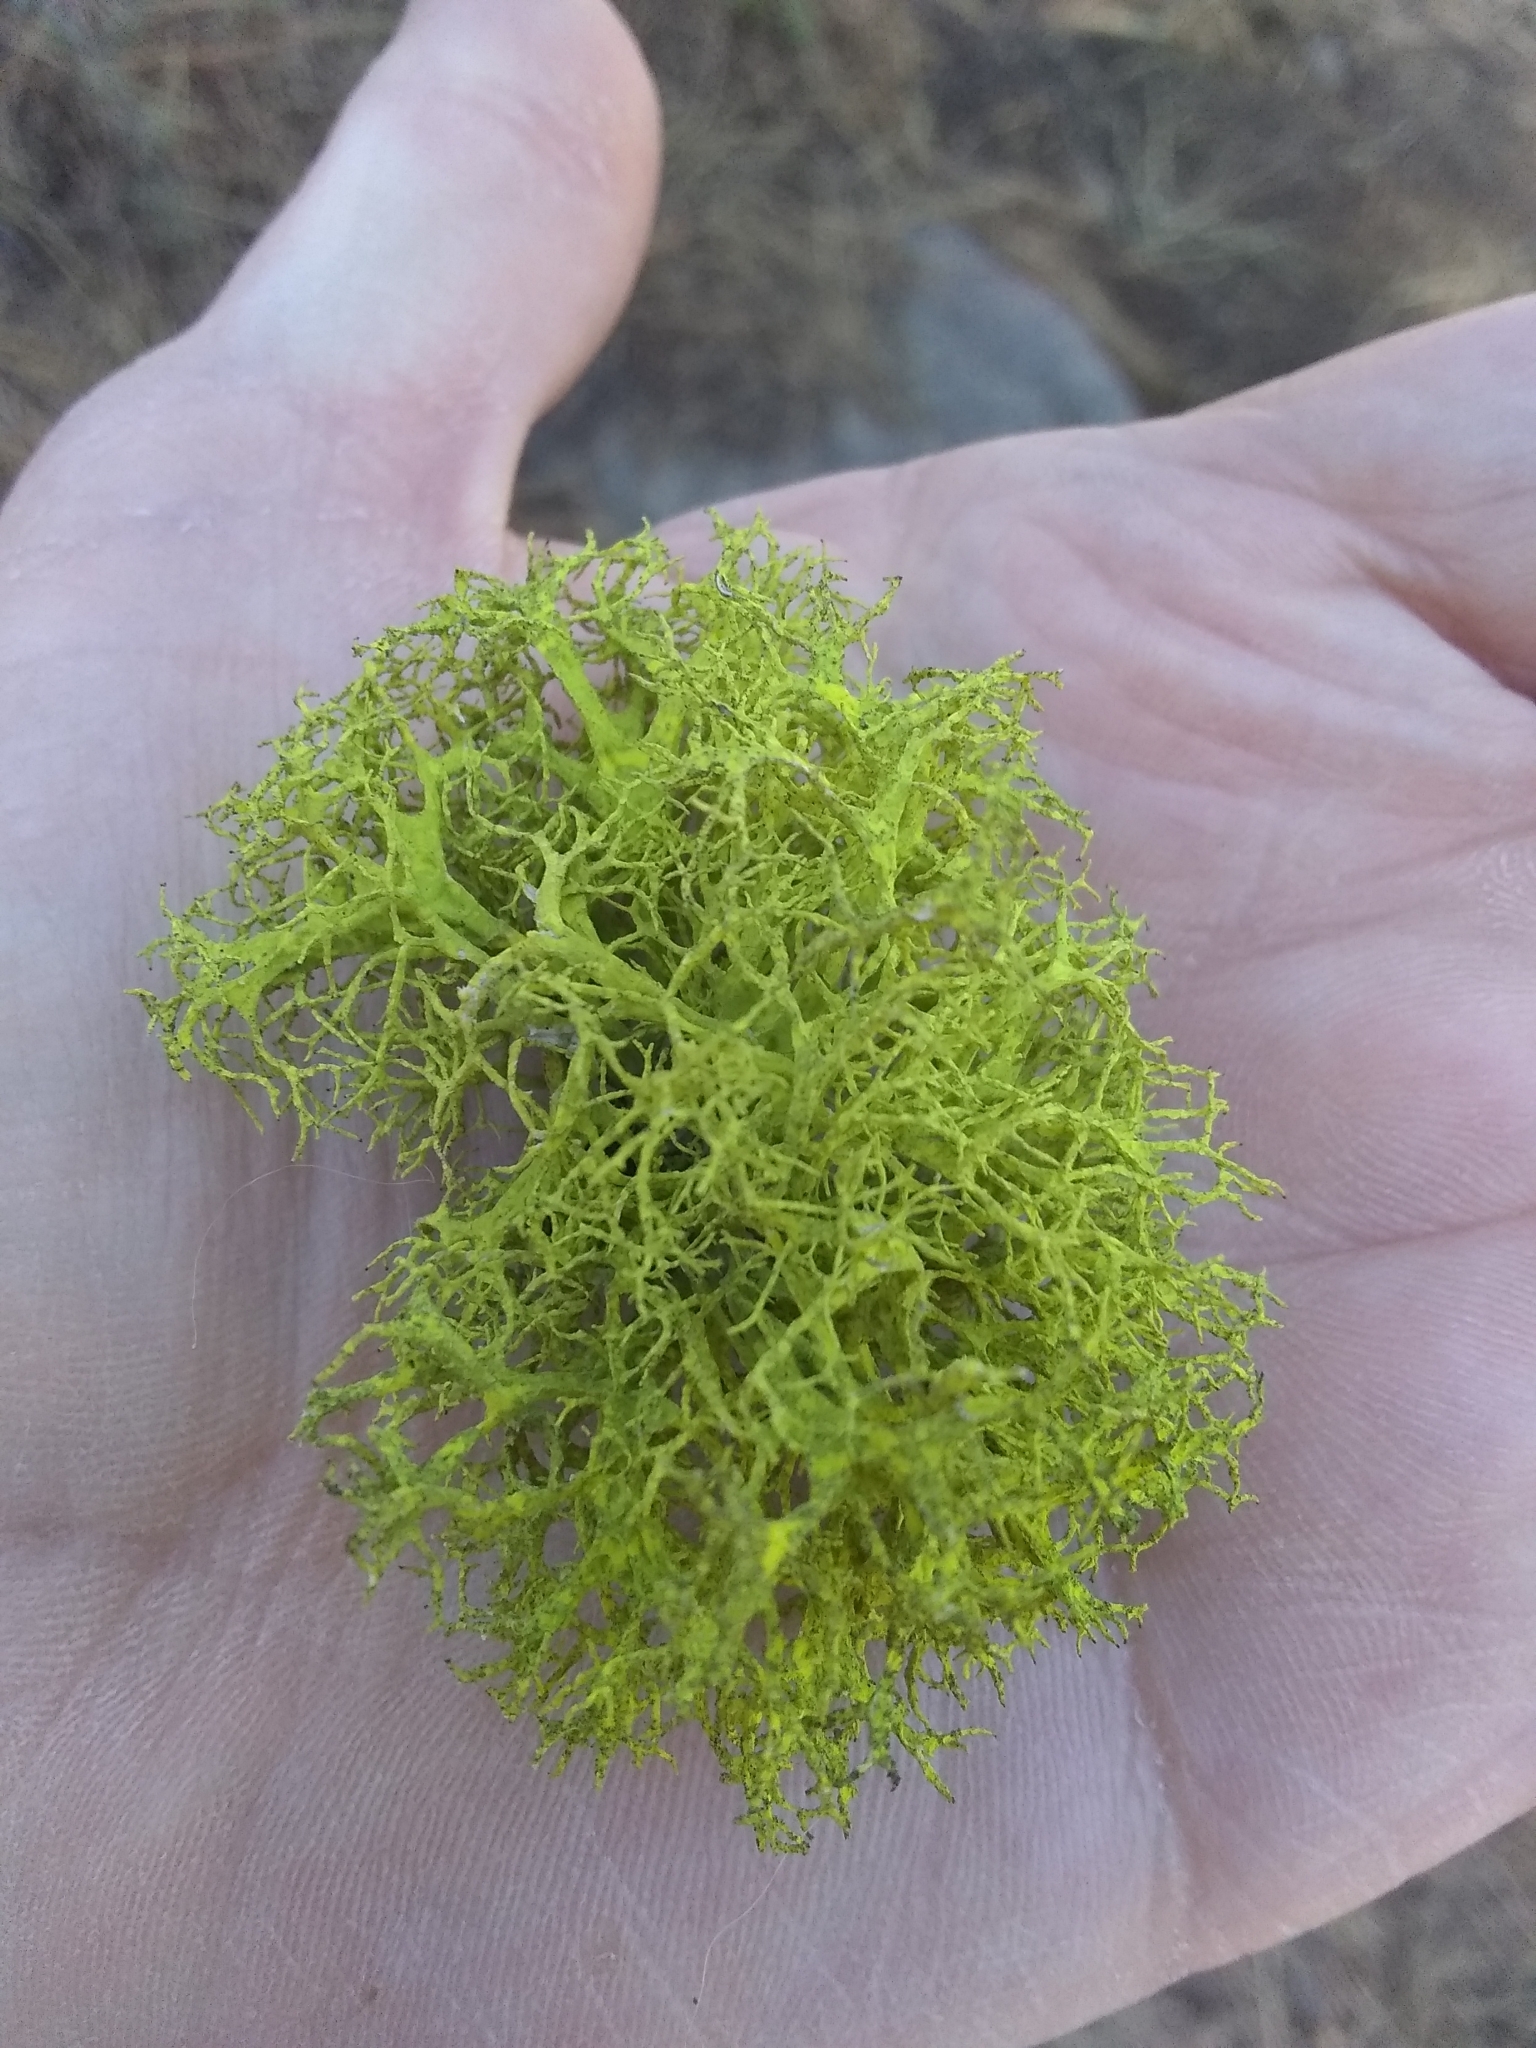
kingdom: Fungi
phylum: Ascomycota
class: Lecanoromycetes
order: Lecanorales
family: Parmeliaceae
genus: Letharia
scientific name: Letharia vulpina
